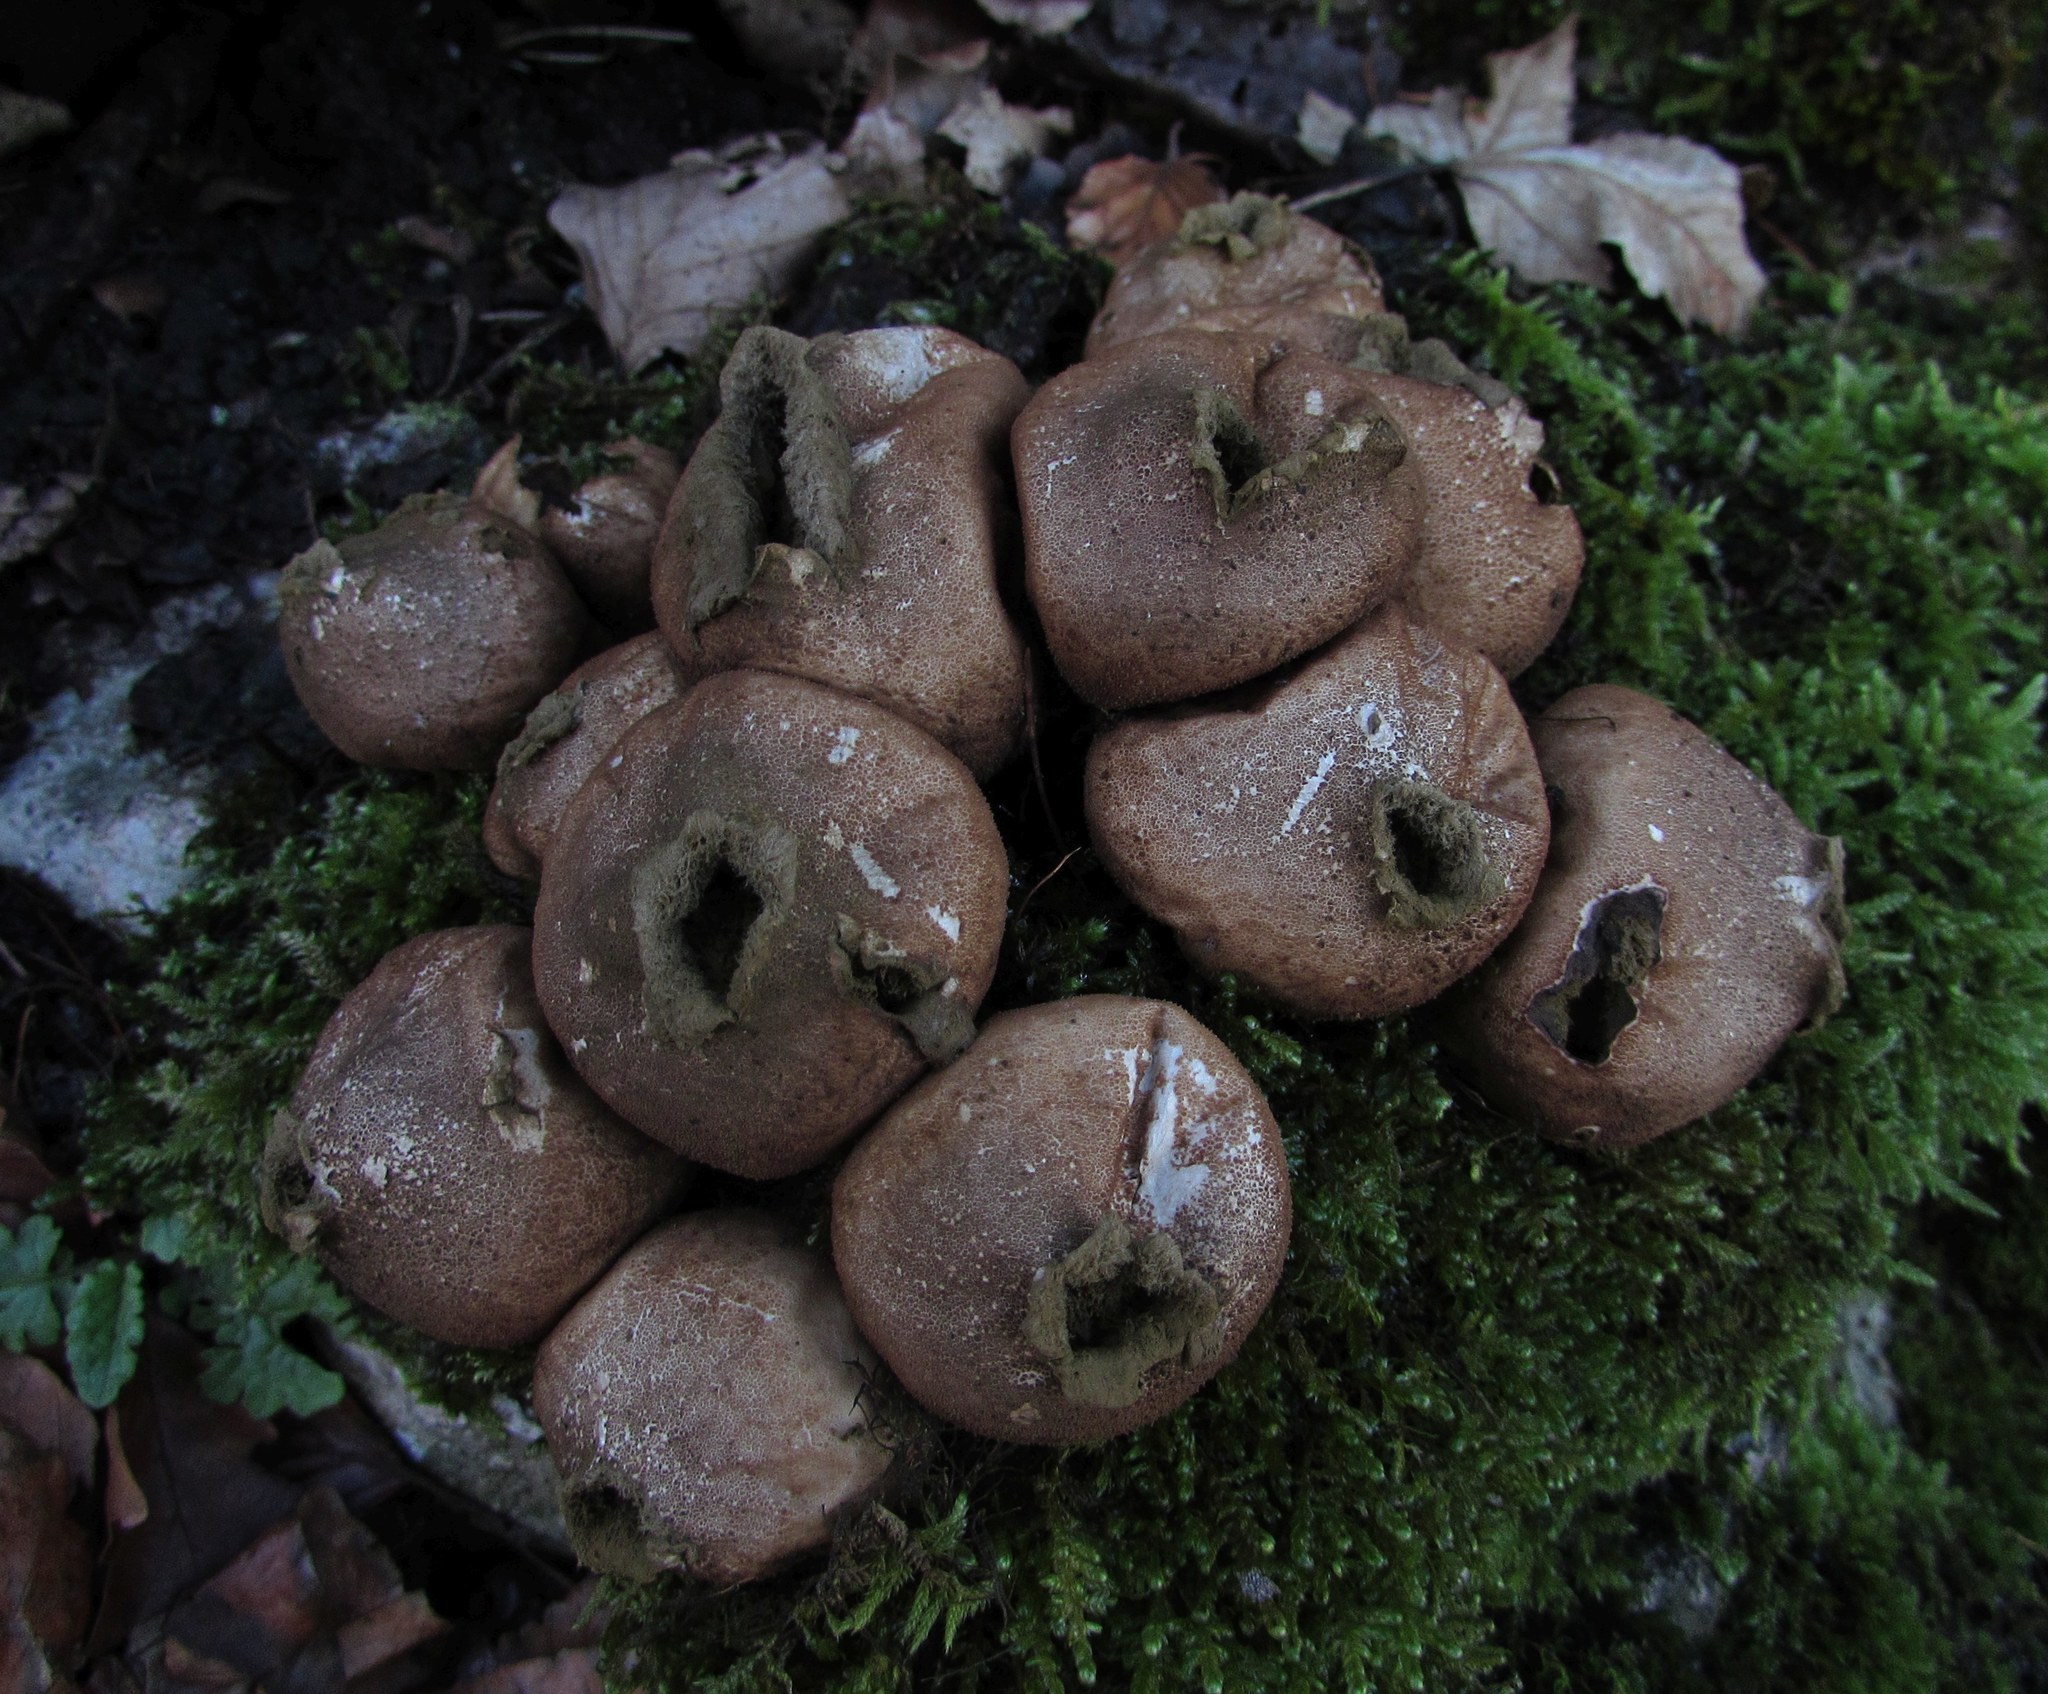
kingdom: Fungi
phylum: Basidiomycota
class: Agaricomycetes
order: Agaricales
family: Lycoperdaceae
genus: Apioperdon
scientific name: Apioperdon pyriforme
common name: Pear-shaped puffball
